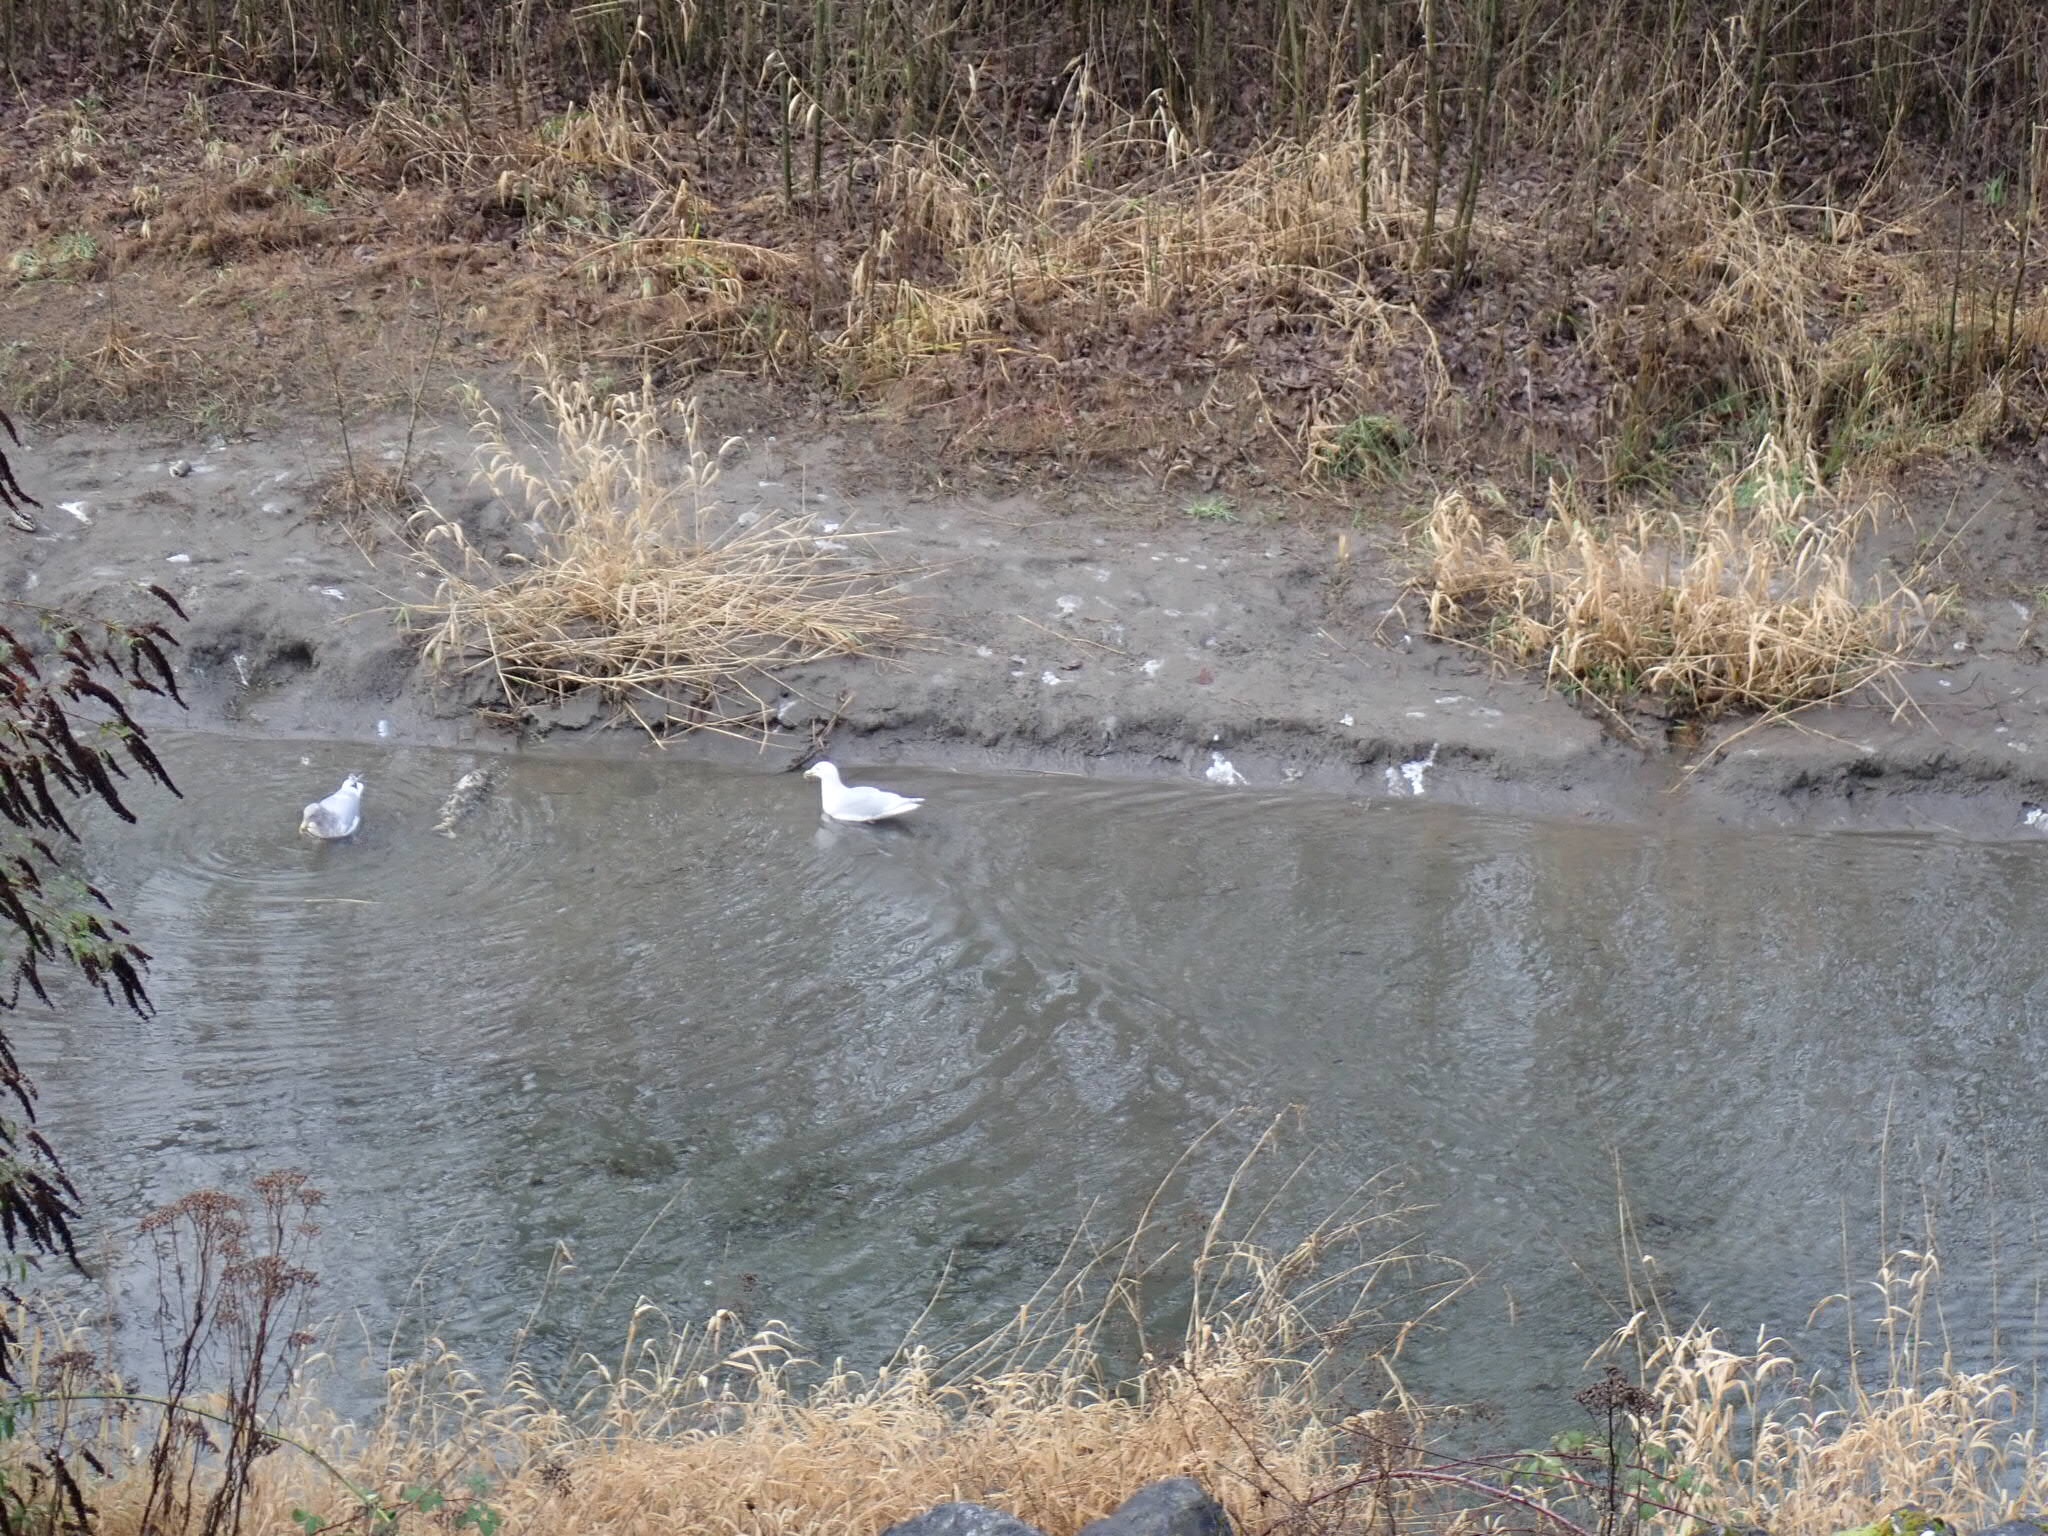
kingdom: Animalia
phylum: Chordata
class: Aves
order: Charadriiformes
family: Laridae
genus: Larus
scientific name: Larus
